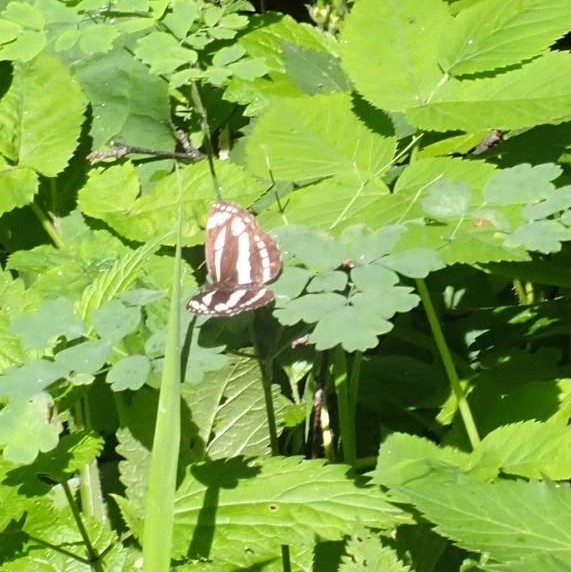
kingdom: Animalia
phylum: Arthropoda
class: Insecta
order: Lepidoptera
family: Nymphalidae
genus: Neptis
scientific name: Neptis sappho
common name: Common glider
